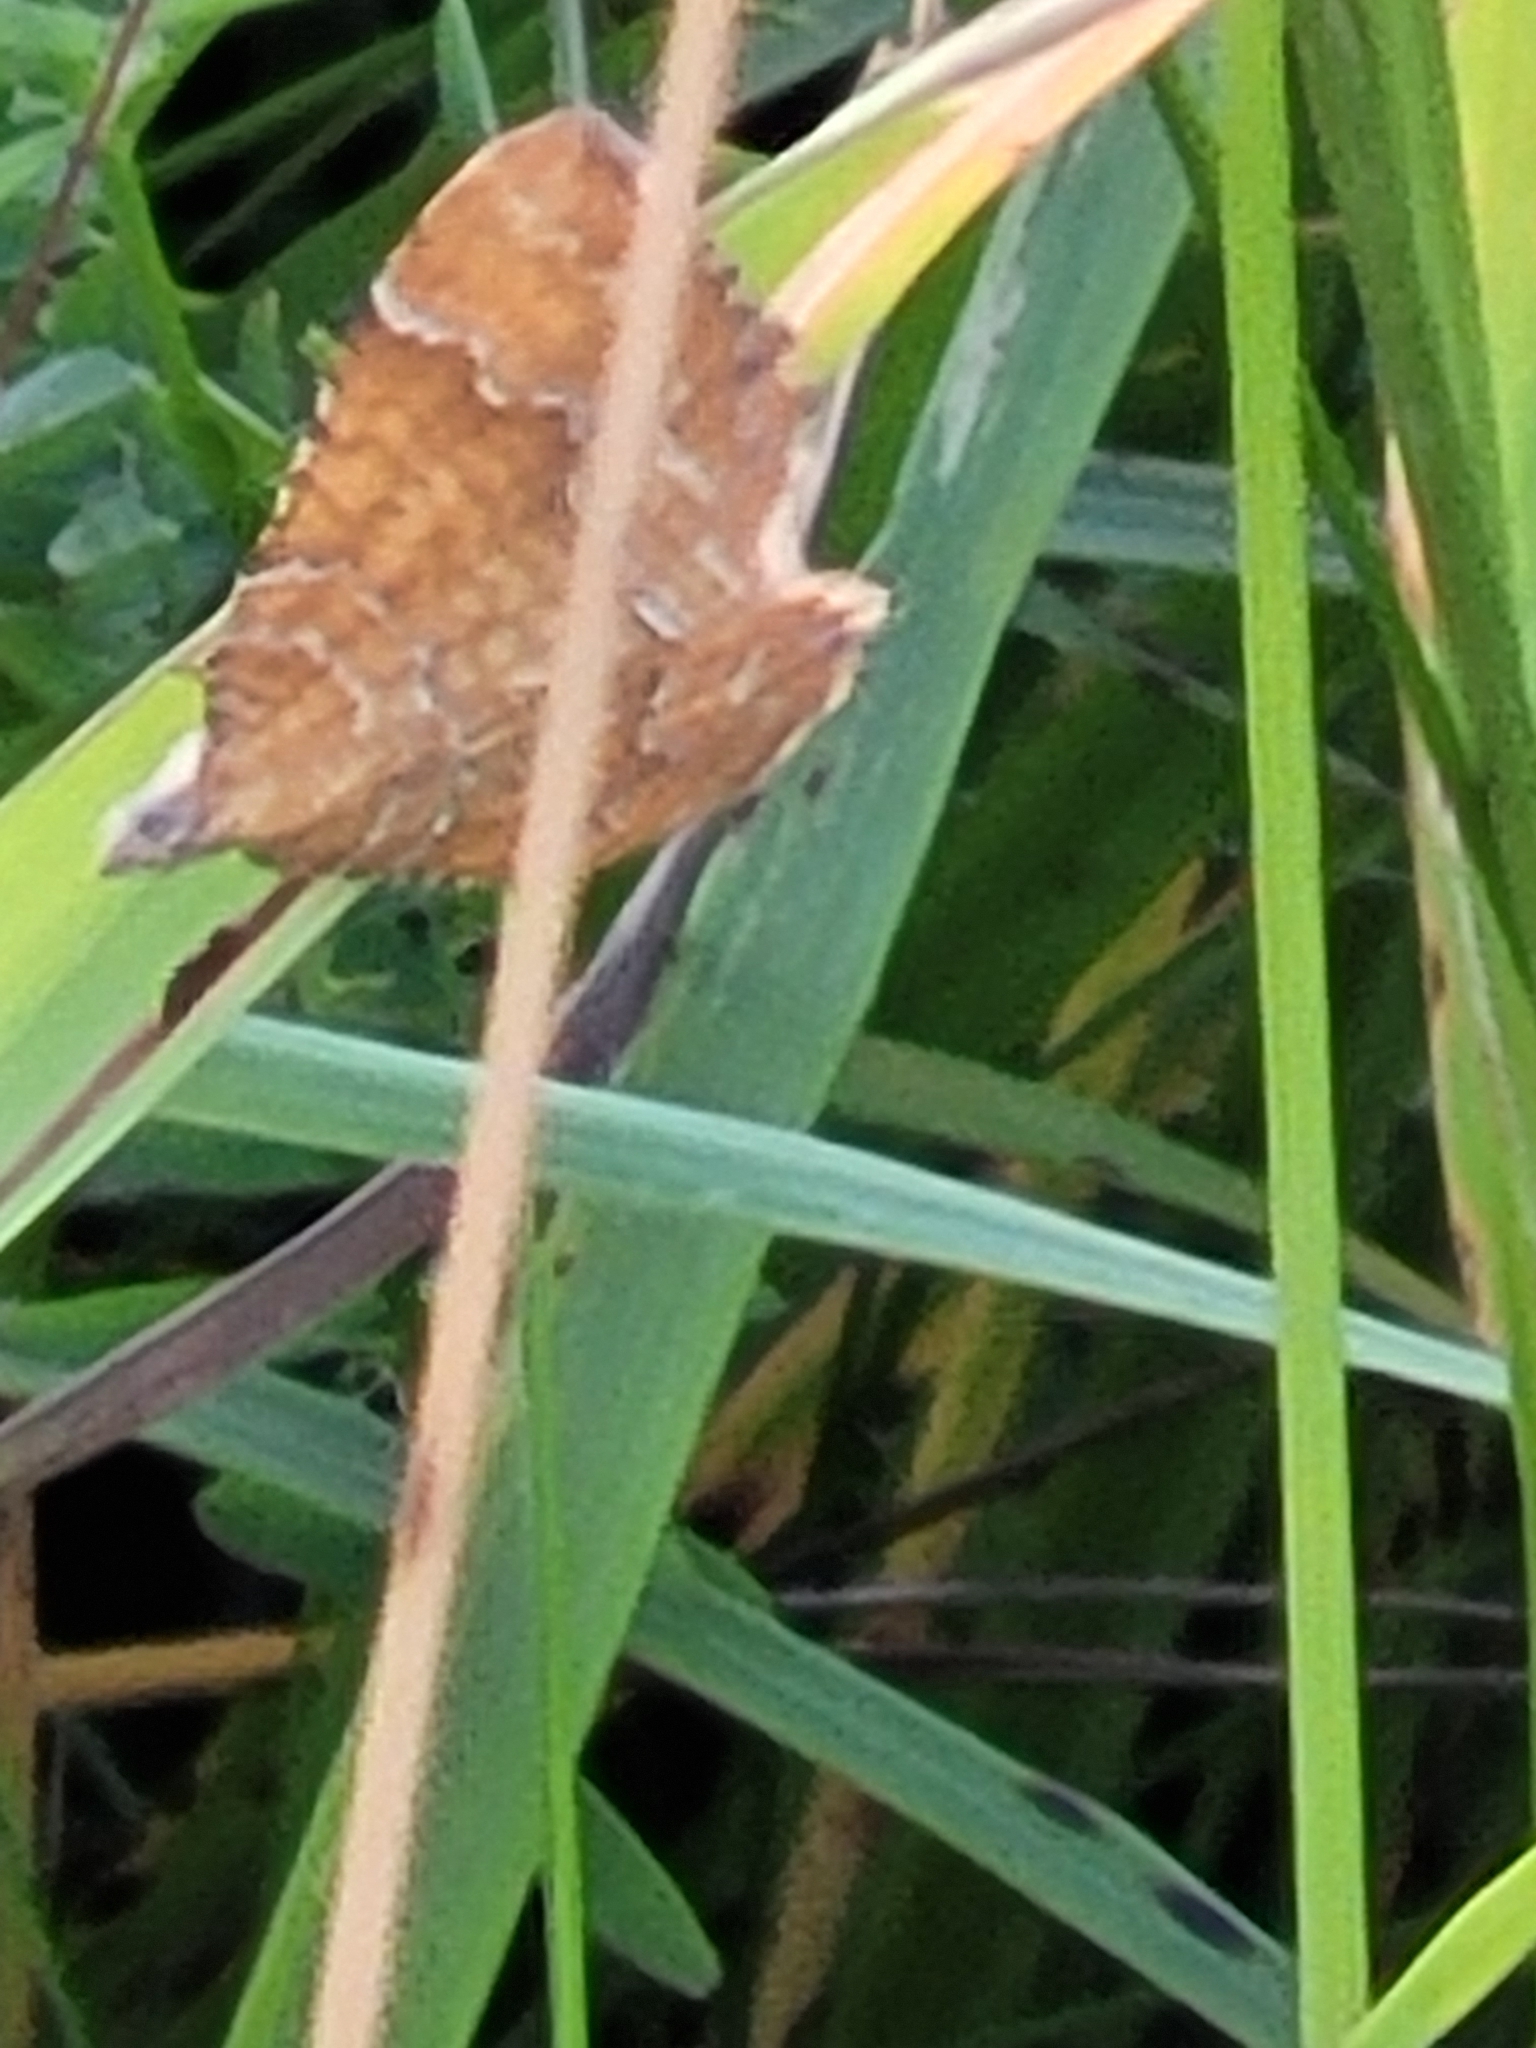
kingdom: Animalia
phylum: Arthropoda
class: Insecta
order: Lepidoptera
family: Geometridae
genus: Camptogramma
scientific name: Camptogramma bilineata
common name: Yellow shell
